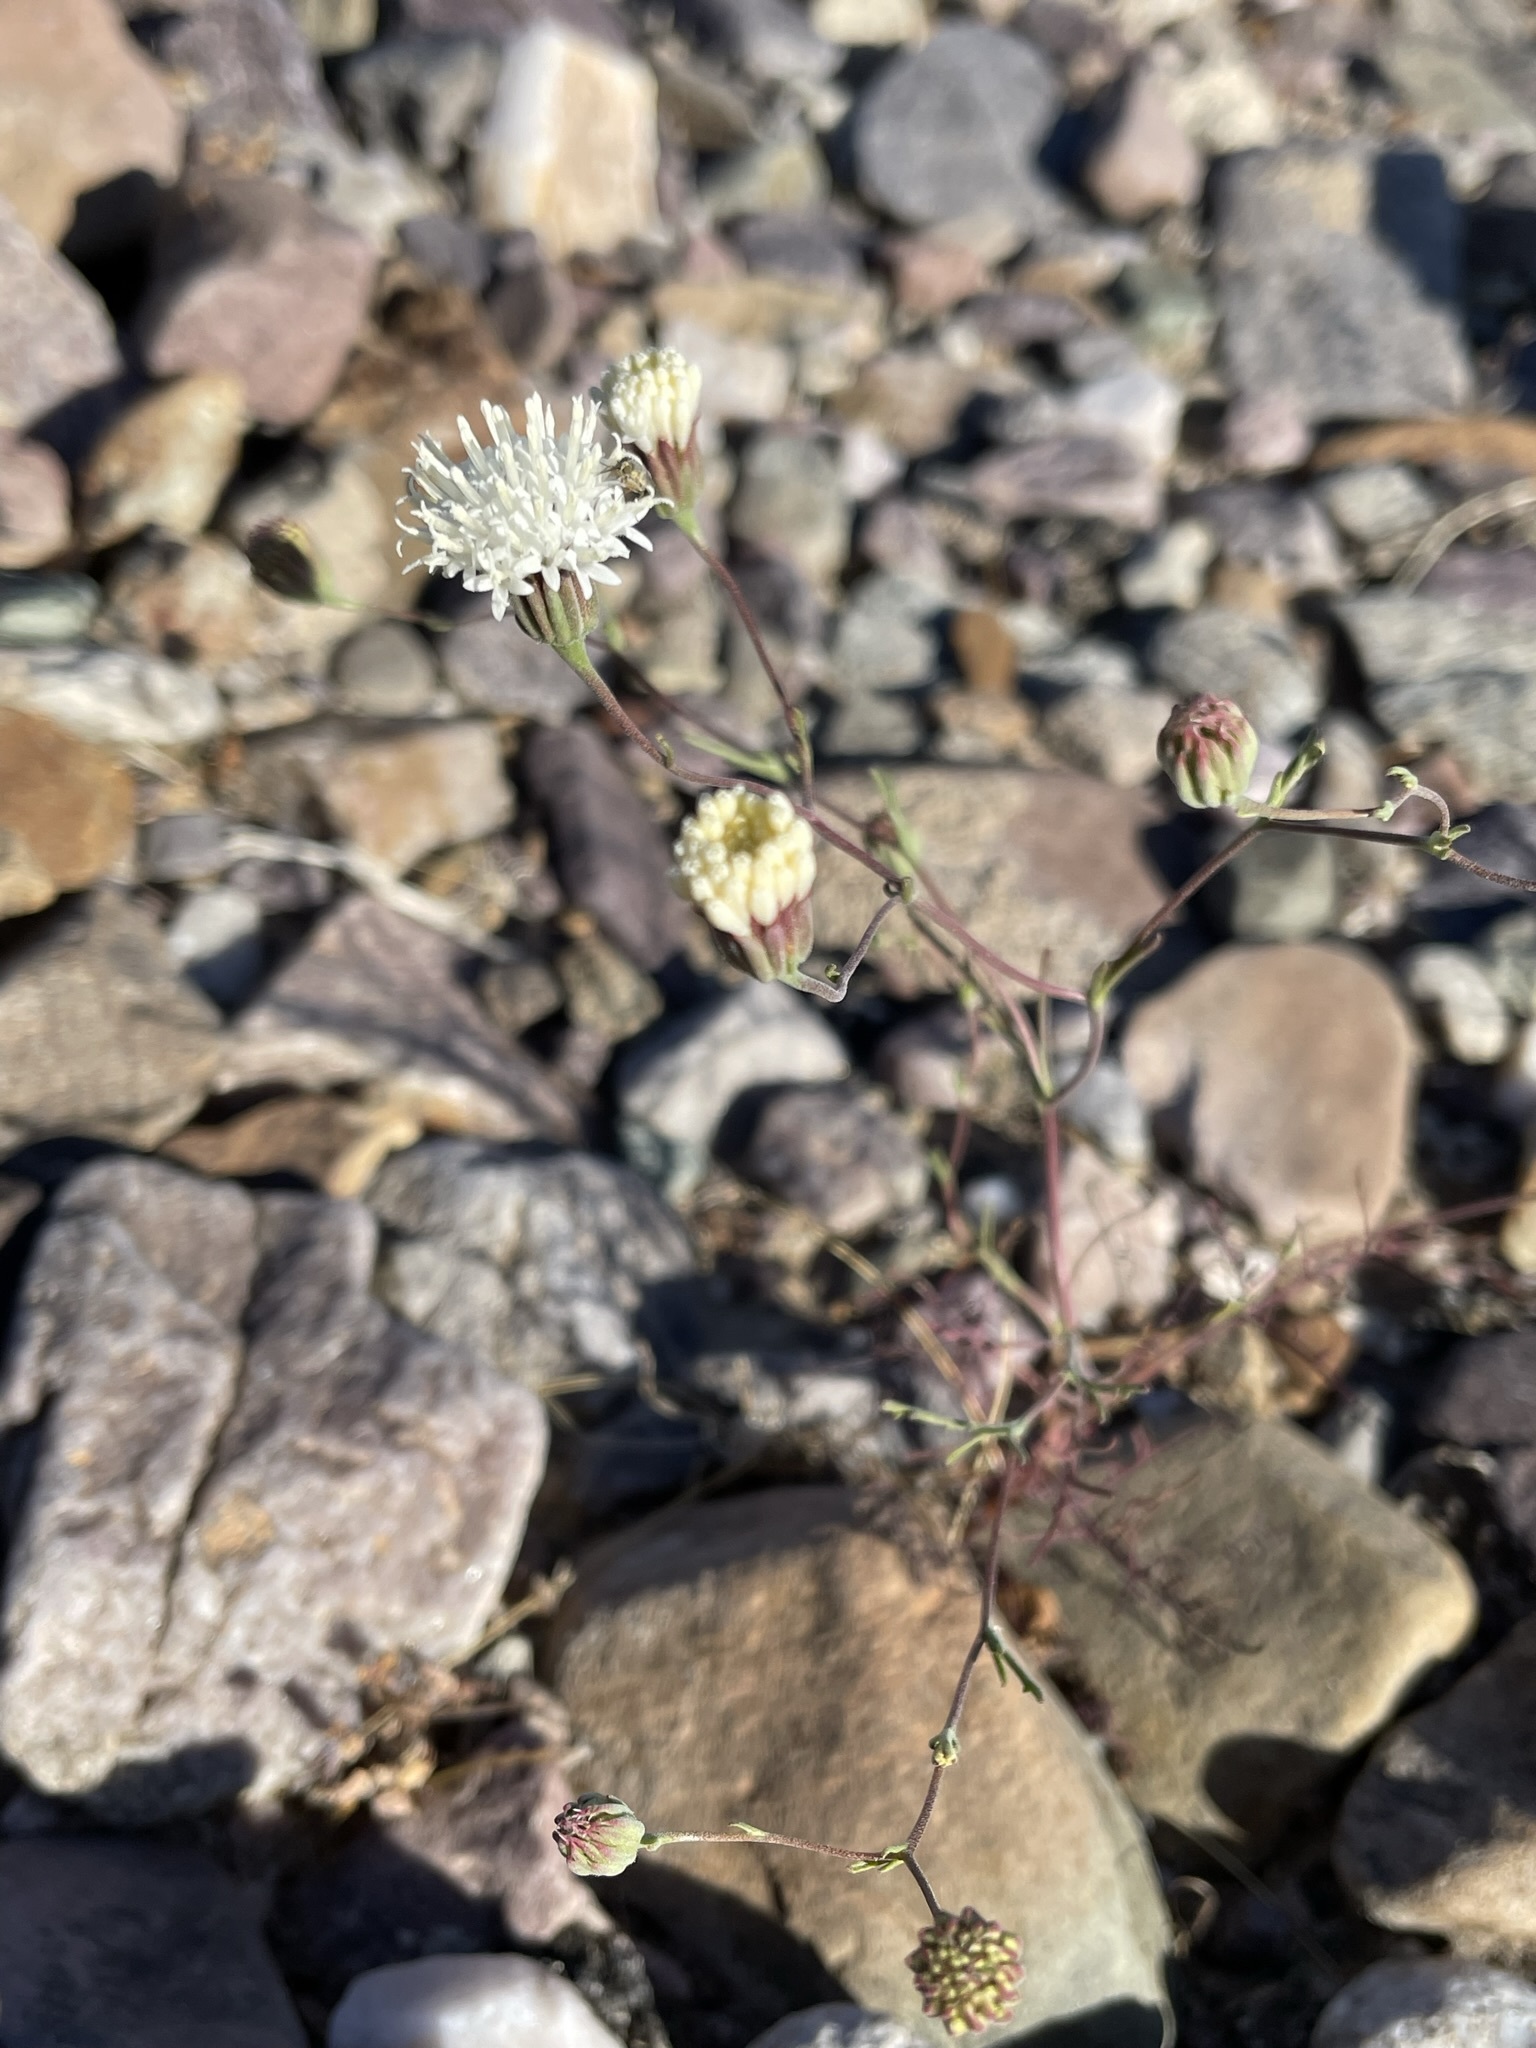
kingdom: Plantae
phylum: Tracheophyta
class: Magnoliopsida
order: Asterales
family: Asteraceae
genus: Chaenactis
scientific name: Chaenactis carphoclinia
